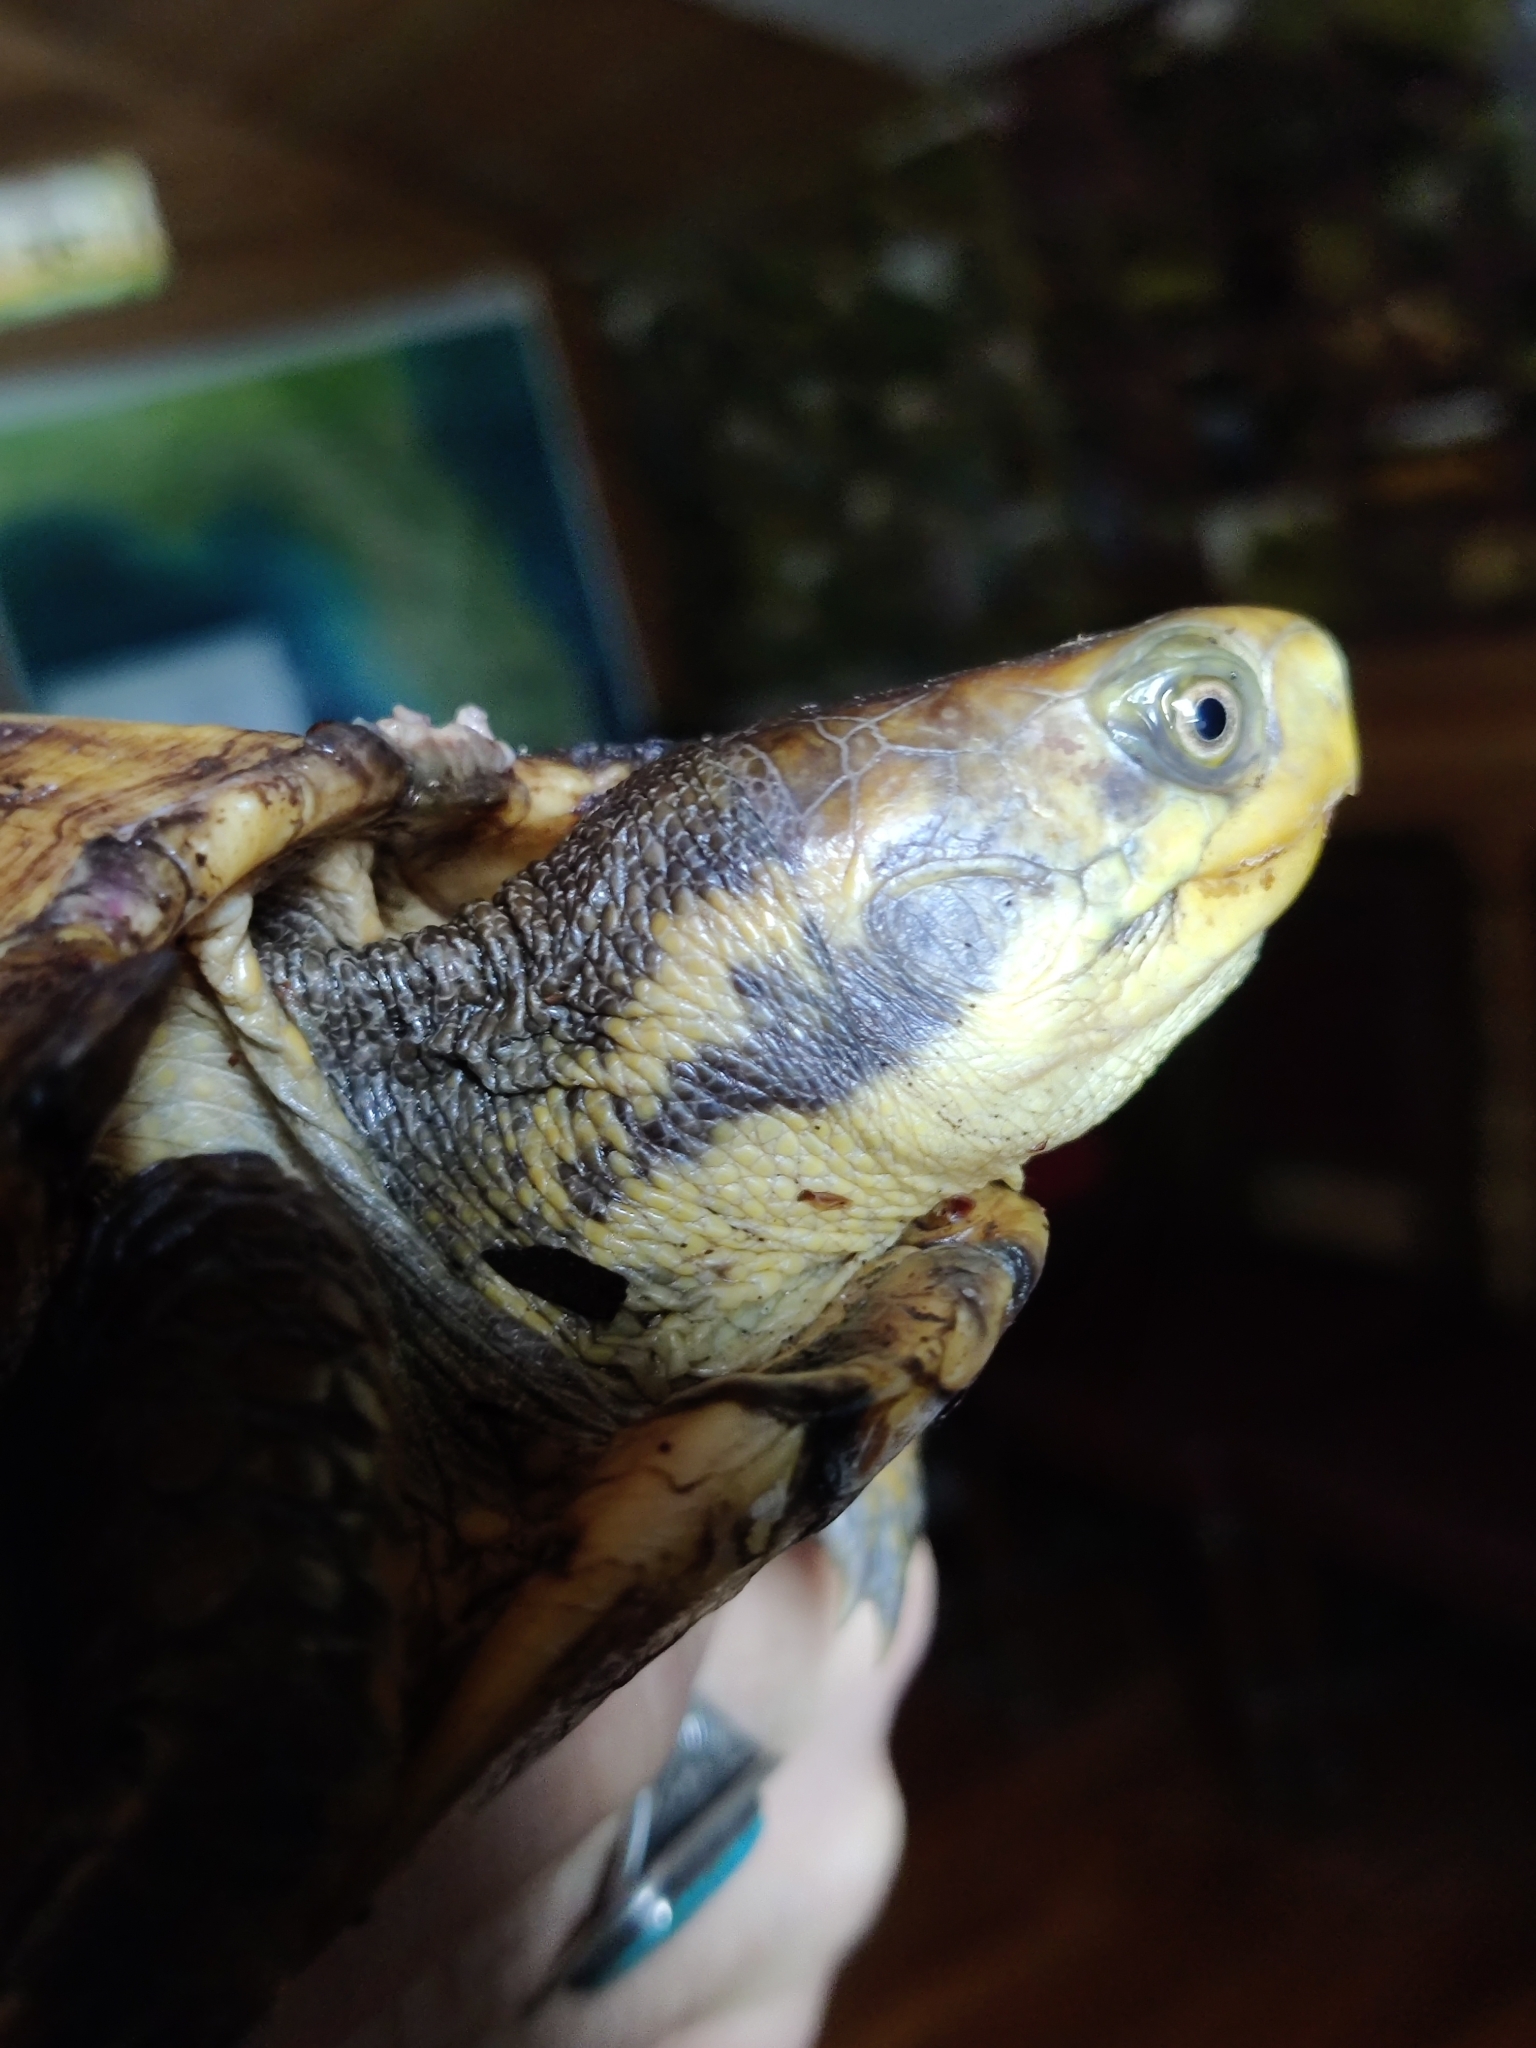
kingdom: Animalia
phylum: Chordata
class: Testudines
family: Emydidae
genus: Terrapene
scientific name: Terrapene carolina
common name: Common box turtle
